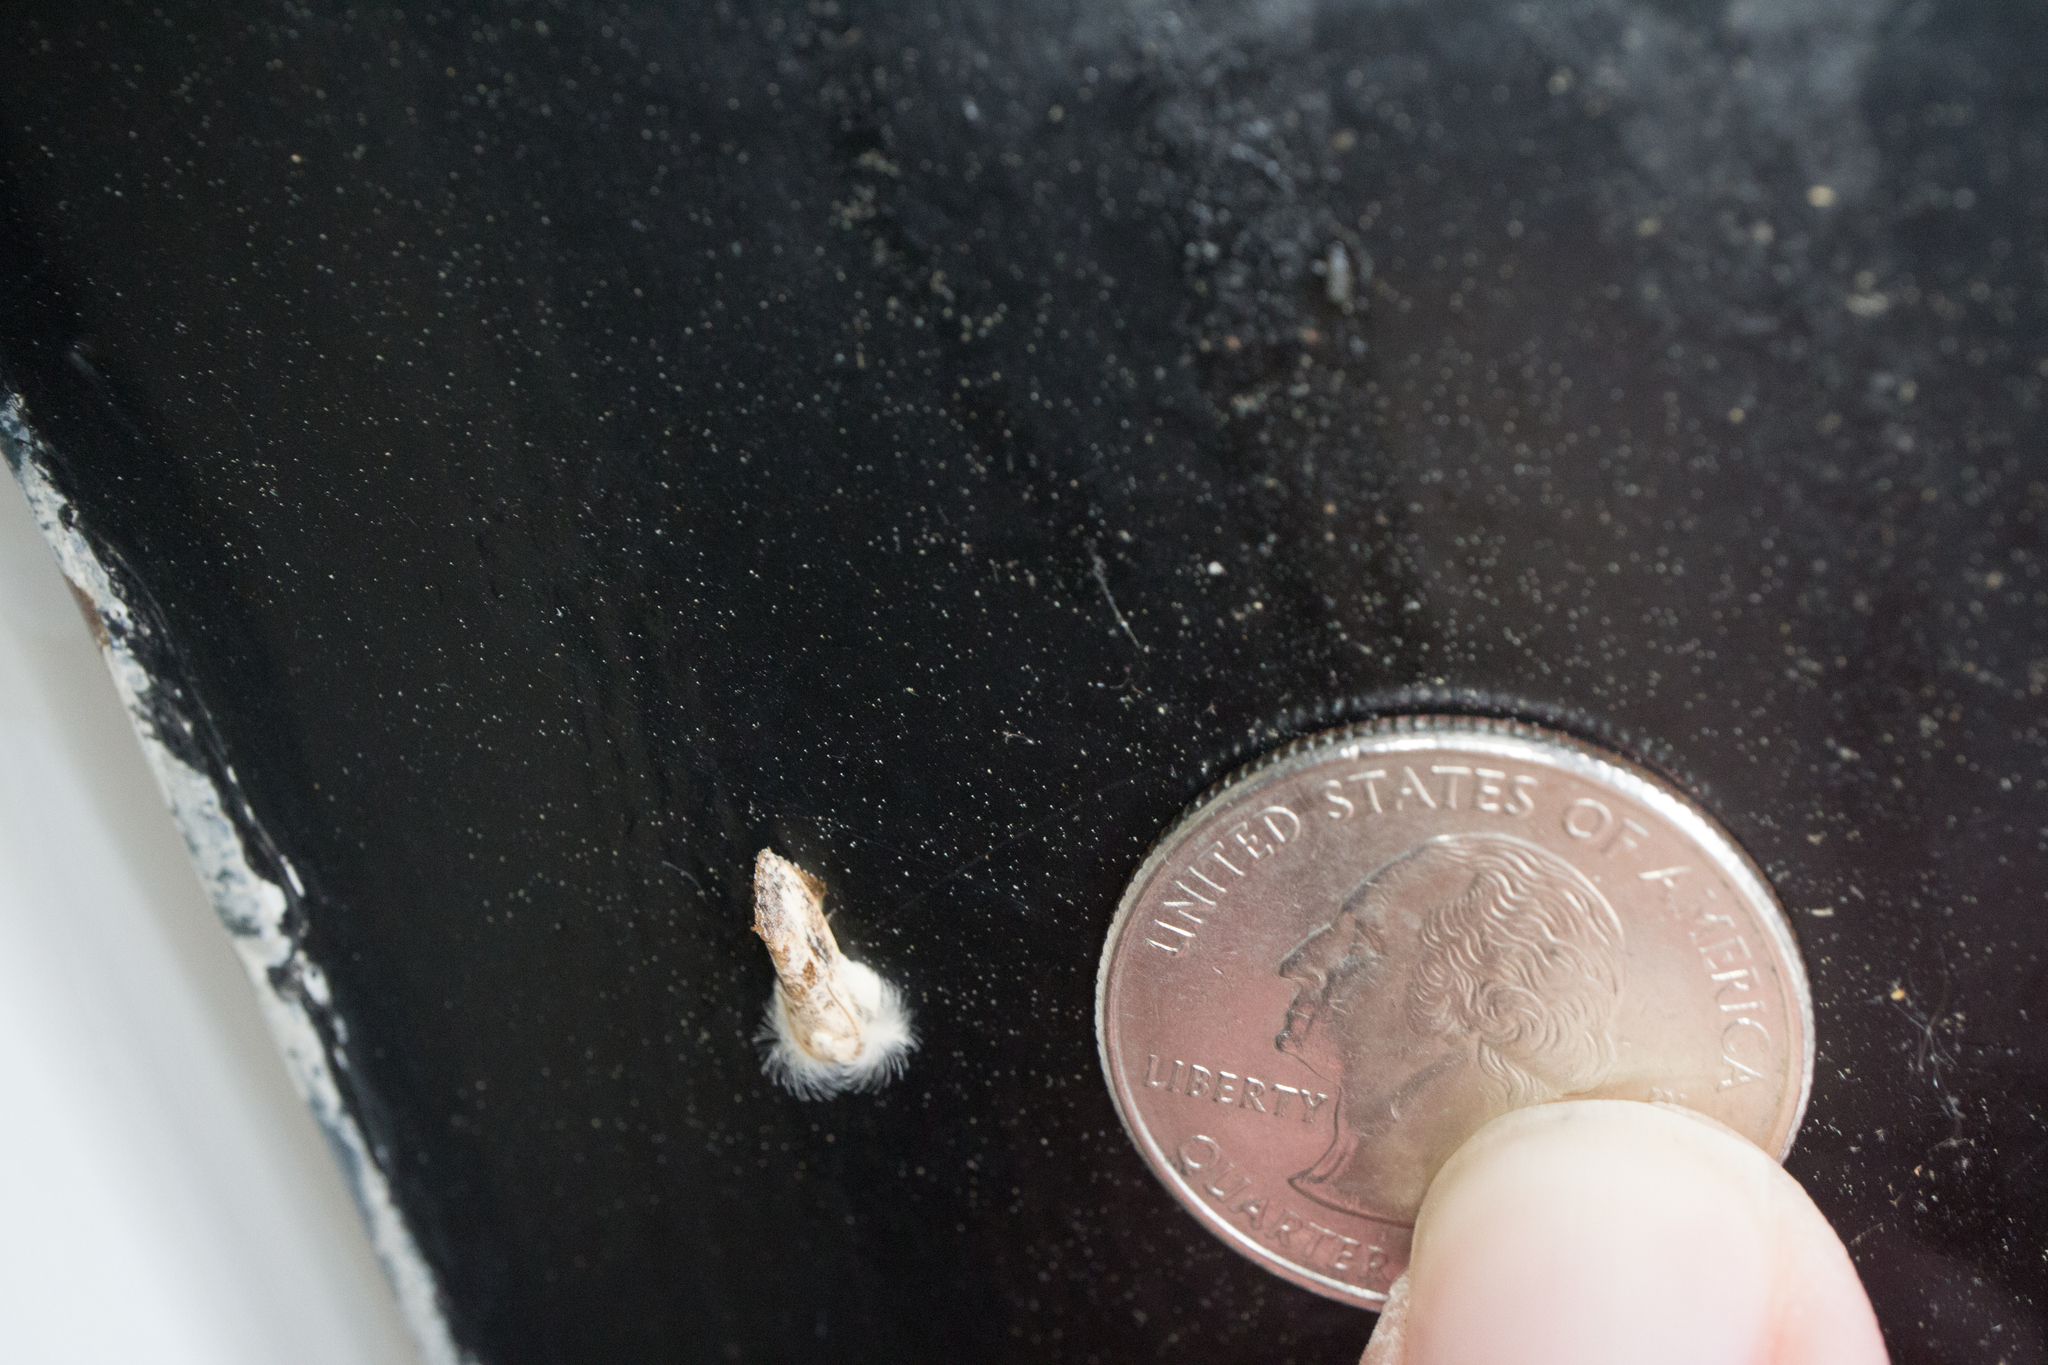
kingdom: Animalia
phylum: Arthropoda
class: Insecta
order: Lepidoptera
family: Tineidae
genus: Acrolophus
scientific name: Acrolophus mycetophagus
